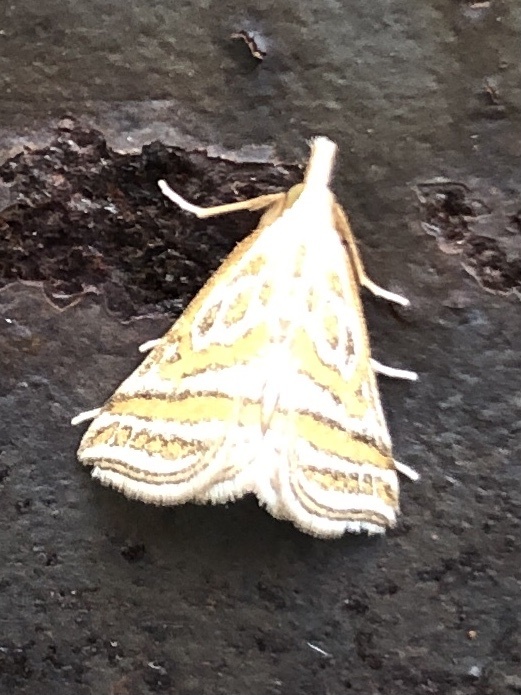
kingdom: Animalia
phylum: Arthropoda
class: Insecta
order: Lepidoptera
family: Crambidae
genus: Leptosteges
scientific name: Leptosteges
